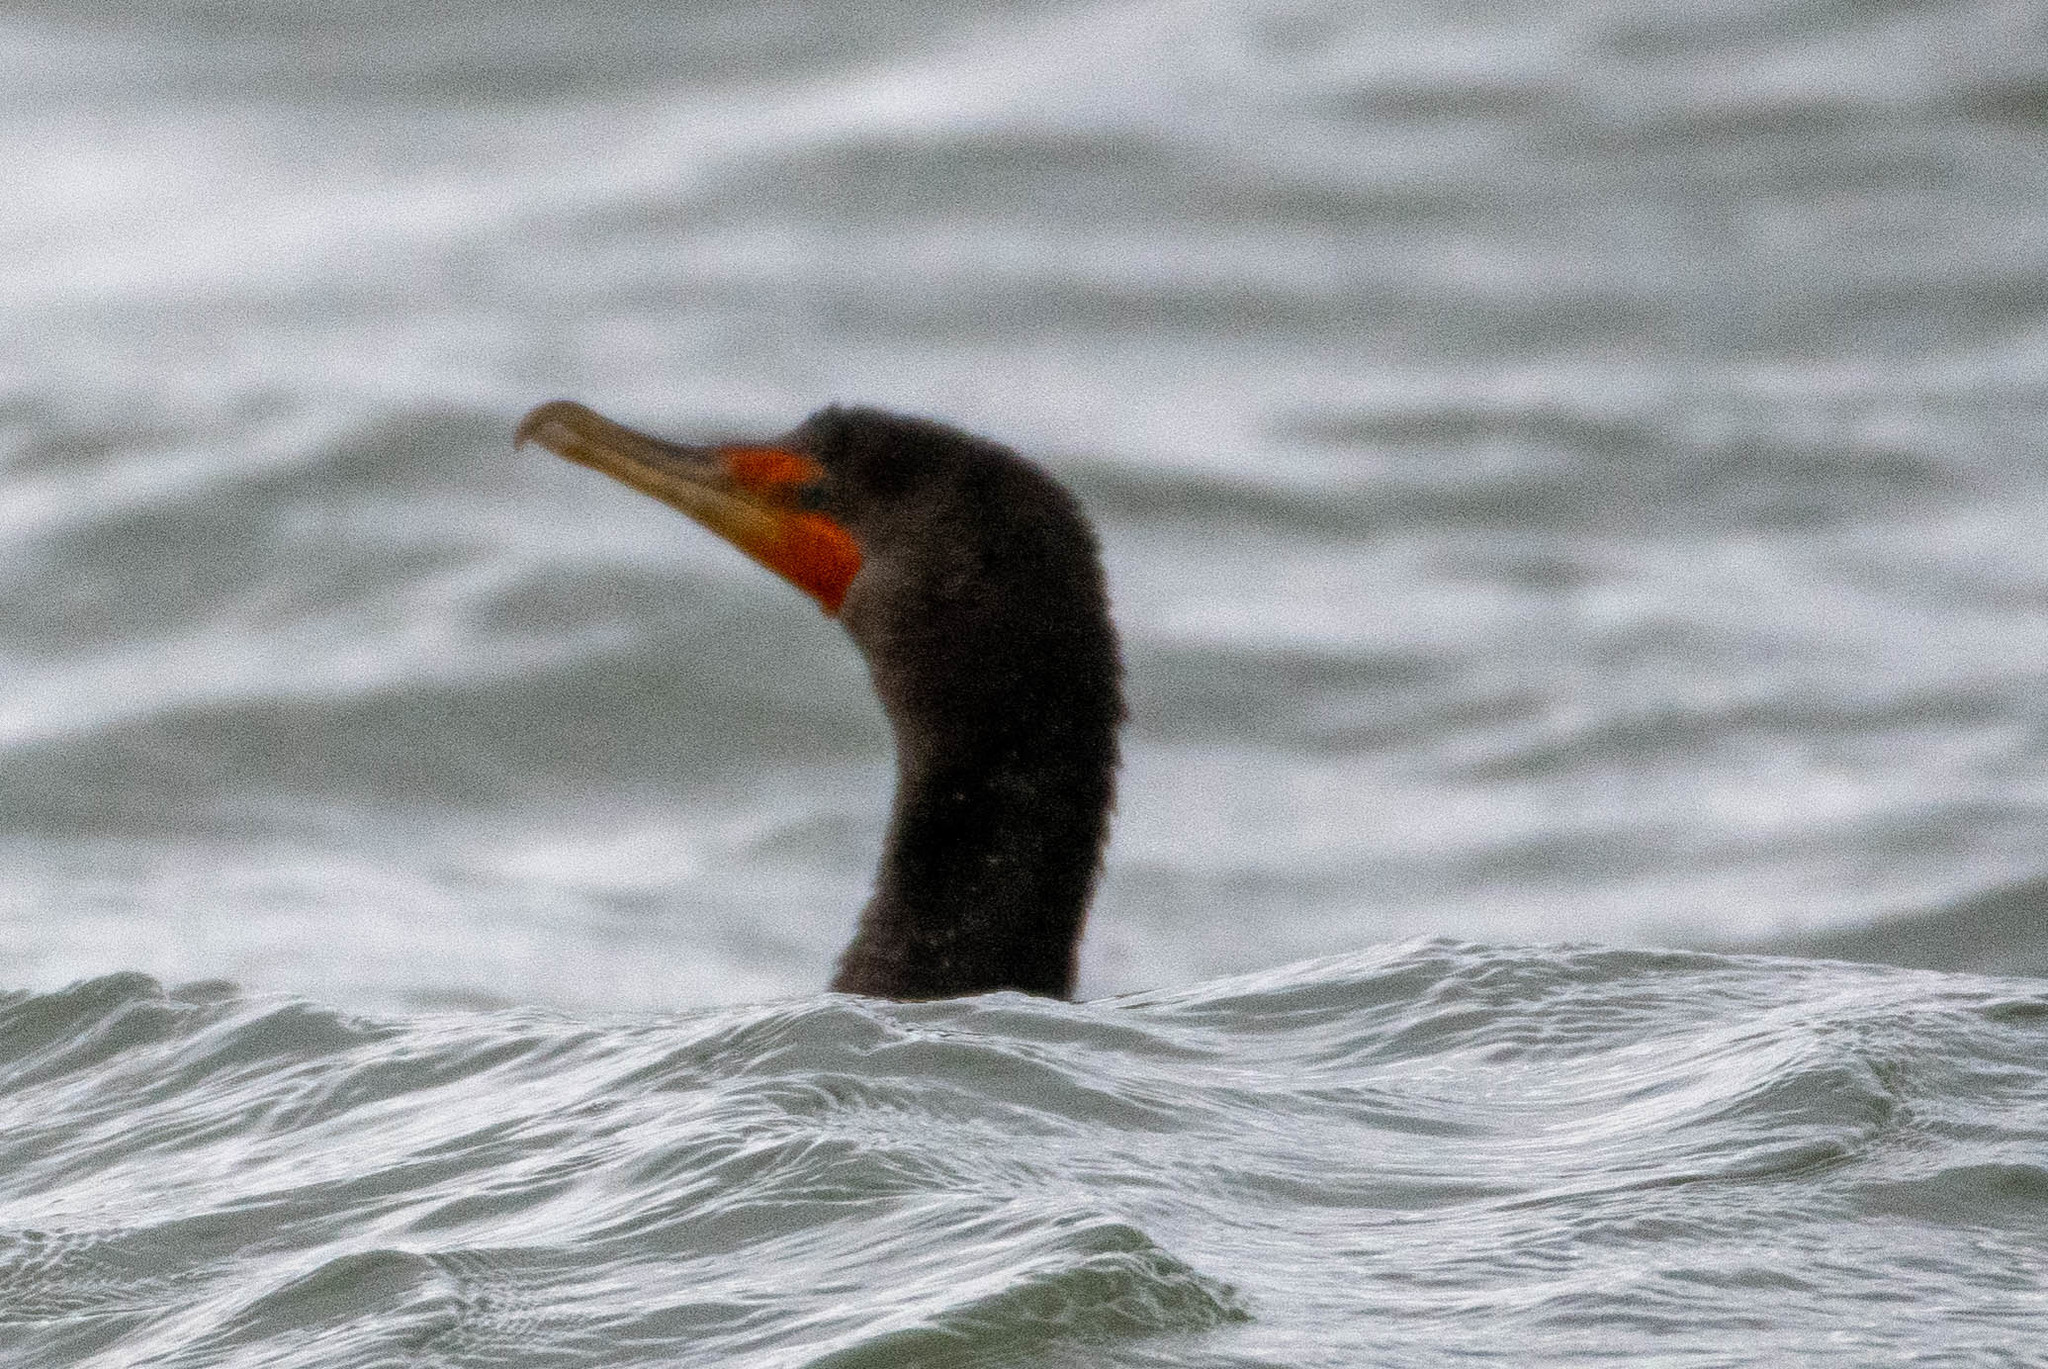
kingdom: Animalia
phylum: Chordata
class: Aves
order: Suliformes
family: Phalacrocoracidae
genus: Phalacrocorax
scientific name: Phalacrocorax auritus
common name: Double-crested cormorant
